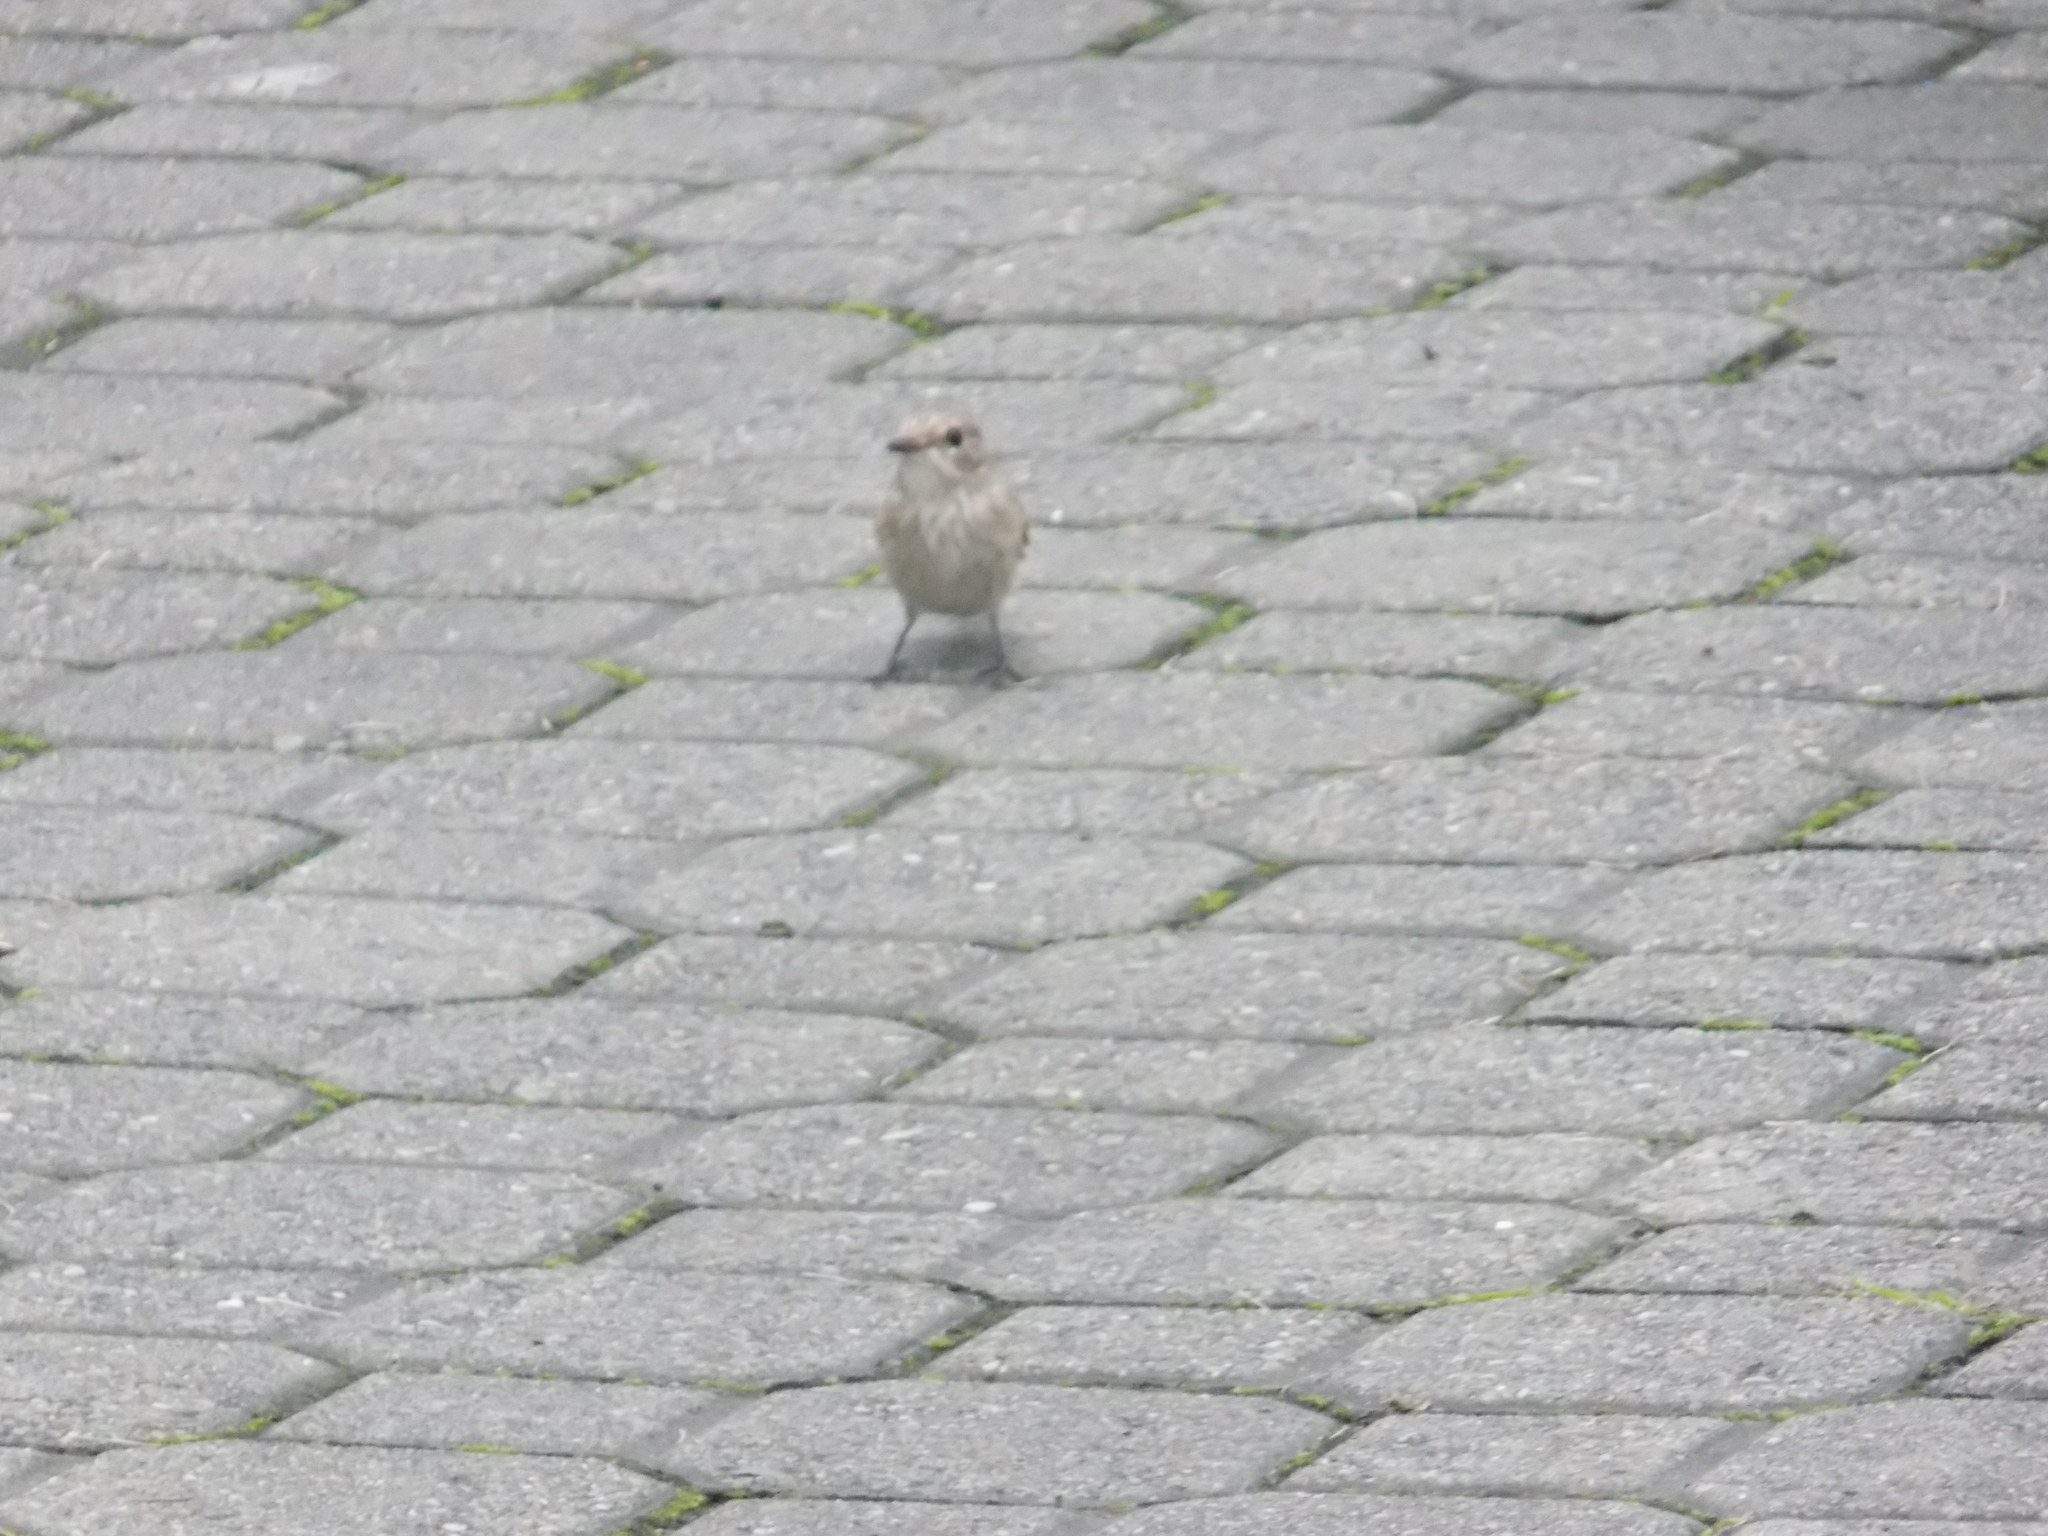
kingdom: Animalia
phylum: Chordata
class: Aves
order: Passeriformes
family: Muscicapidae
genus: Muscicapa
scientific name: Muscicapa striata
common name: Spotted flycatcher
